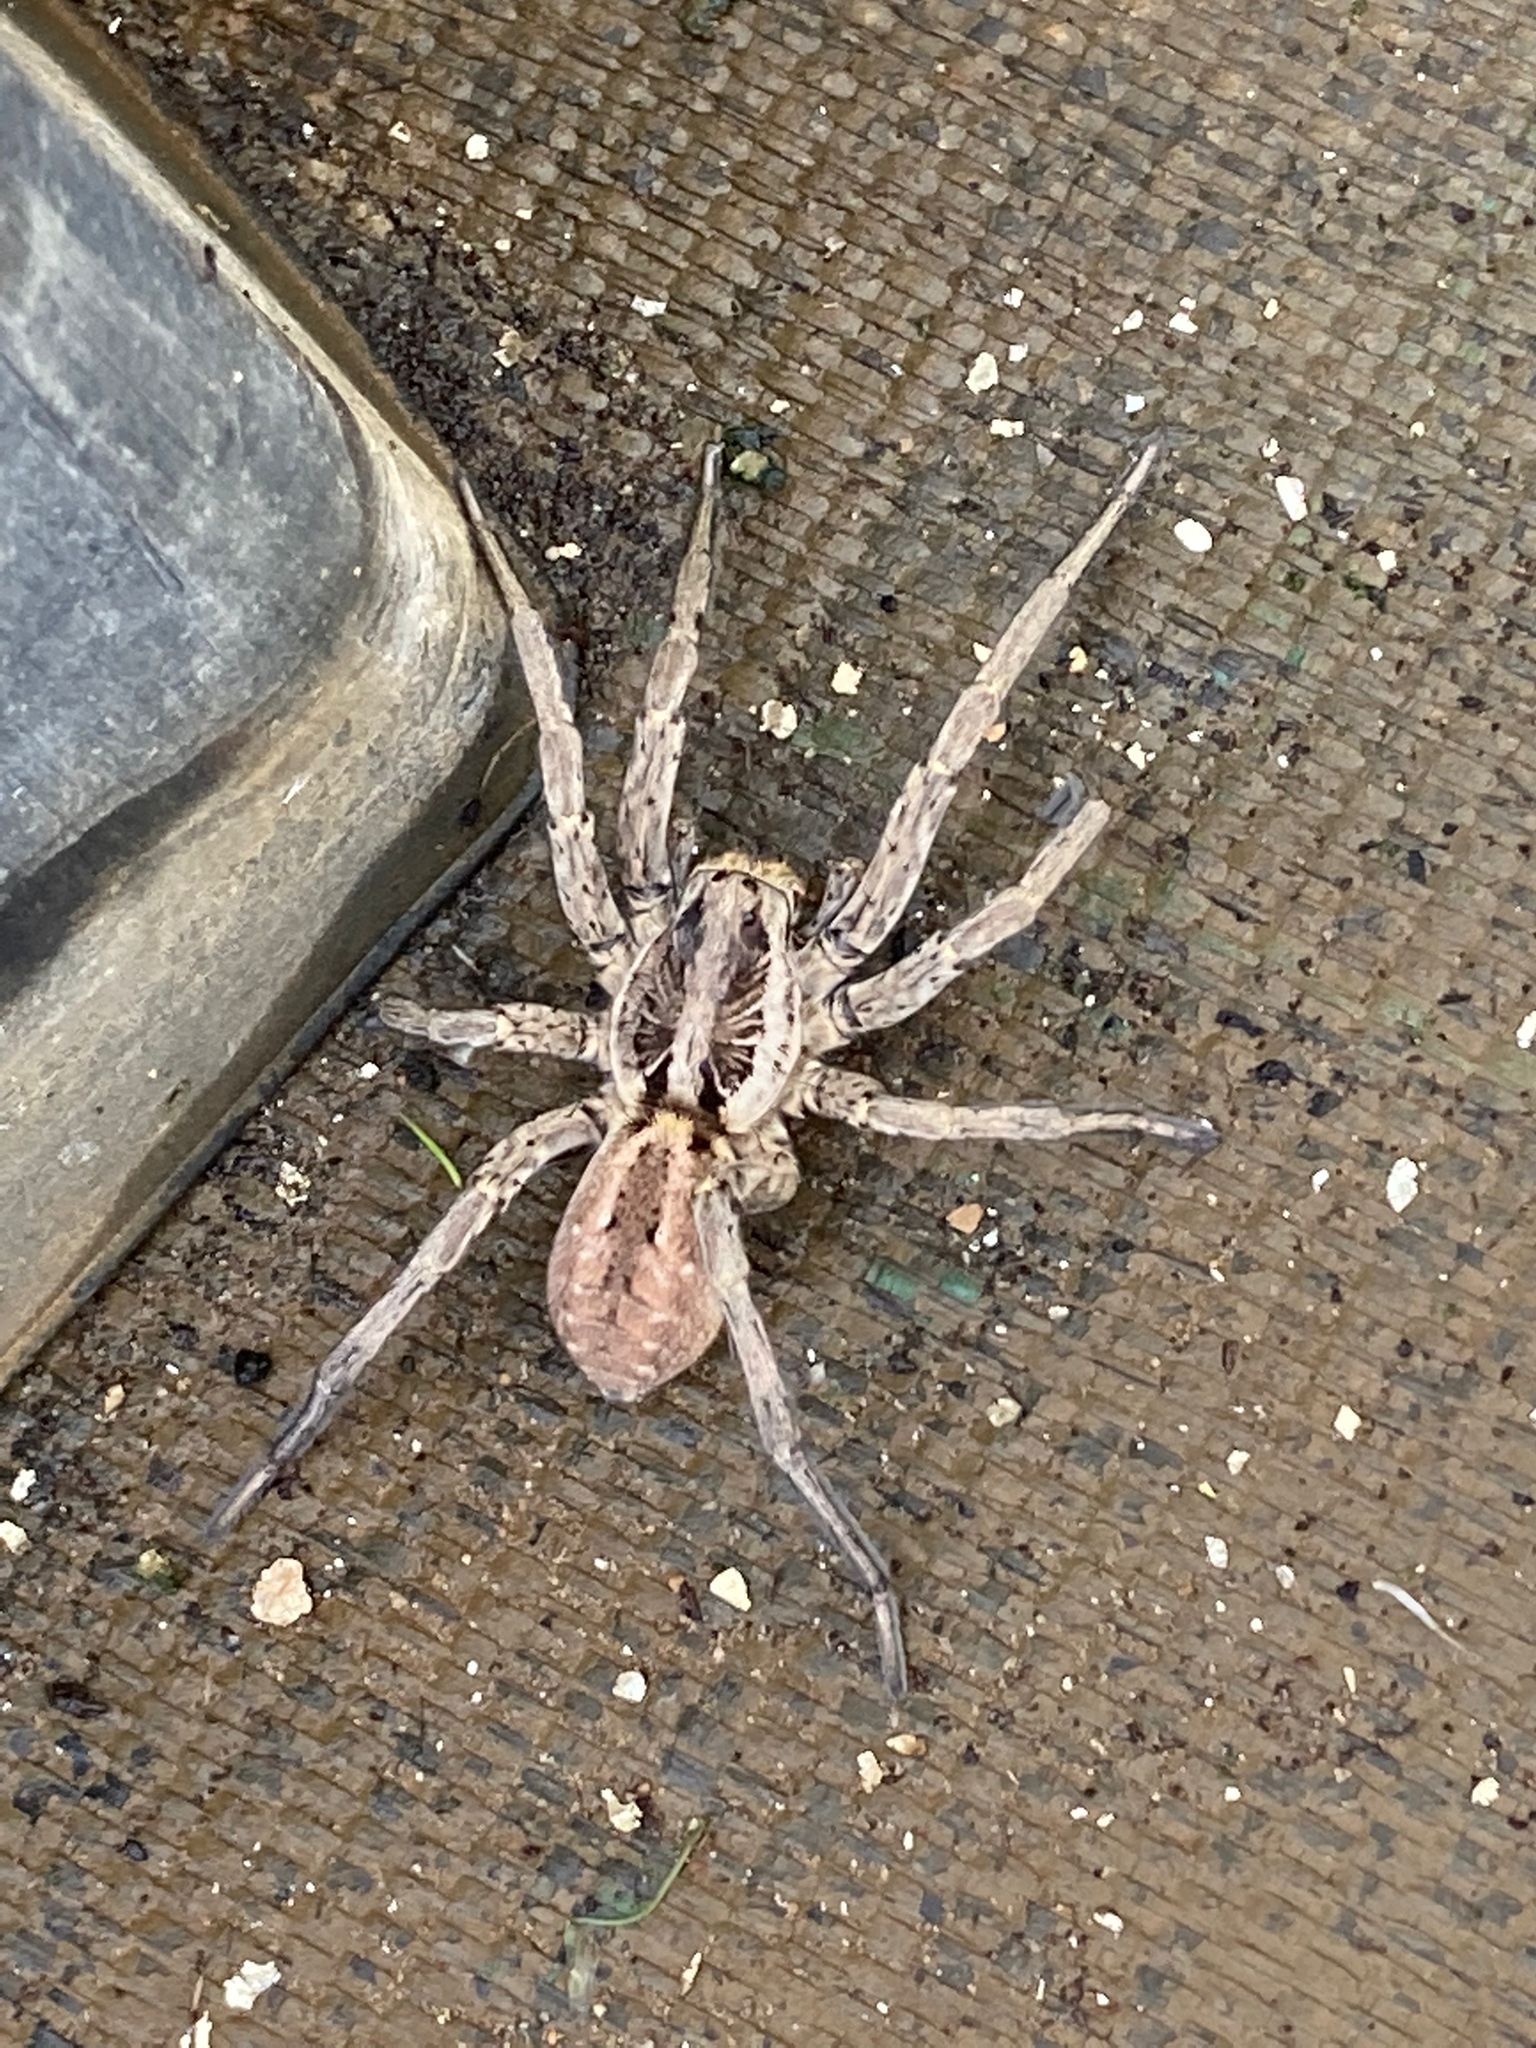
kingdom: Animalia
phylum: Arthropoda
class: Arachnida
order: Araneae
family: Lycosidae
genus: Hogna
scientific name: Hogna radiata
